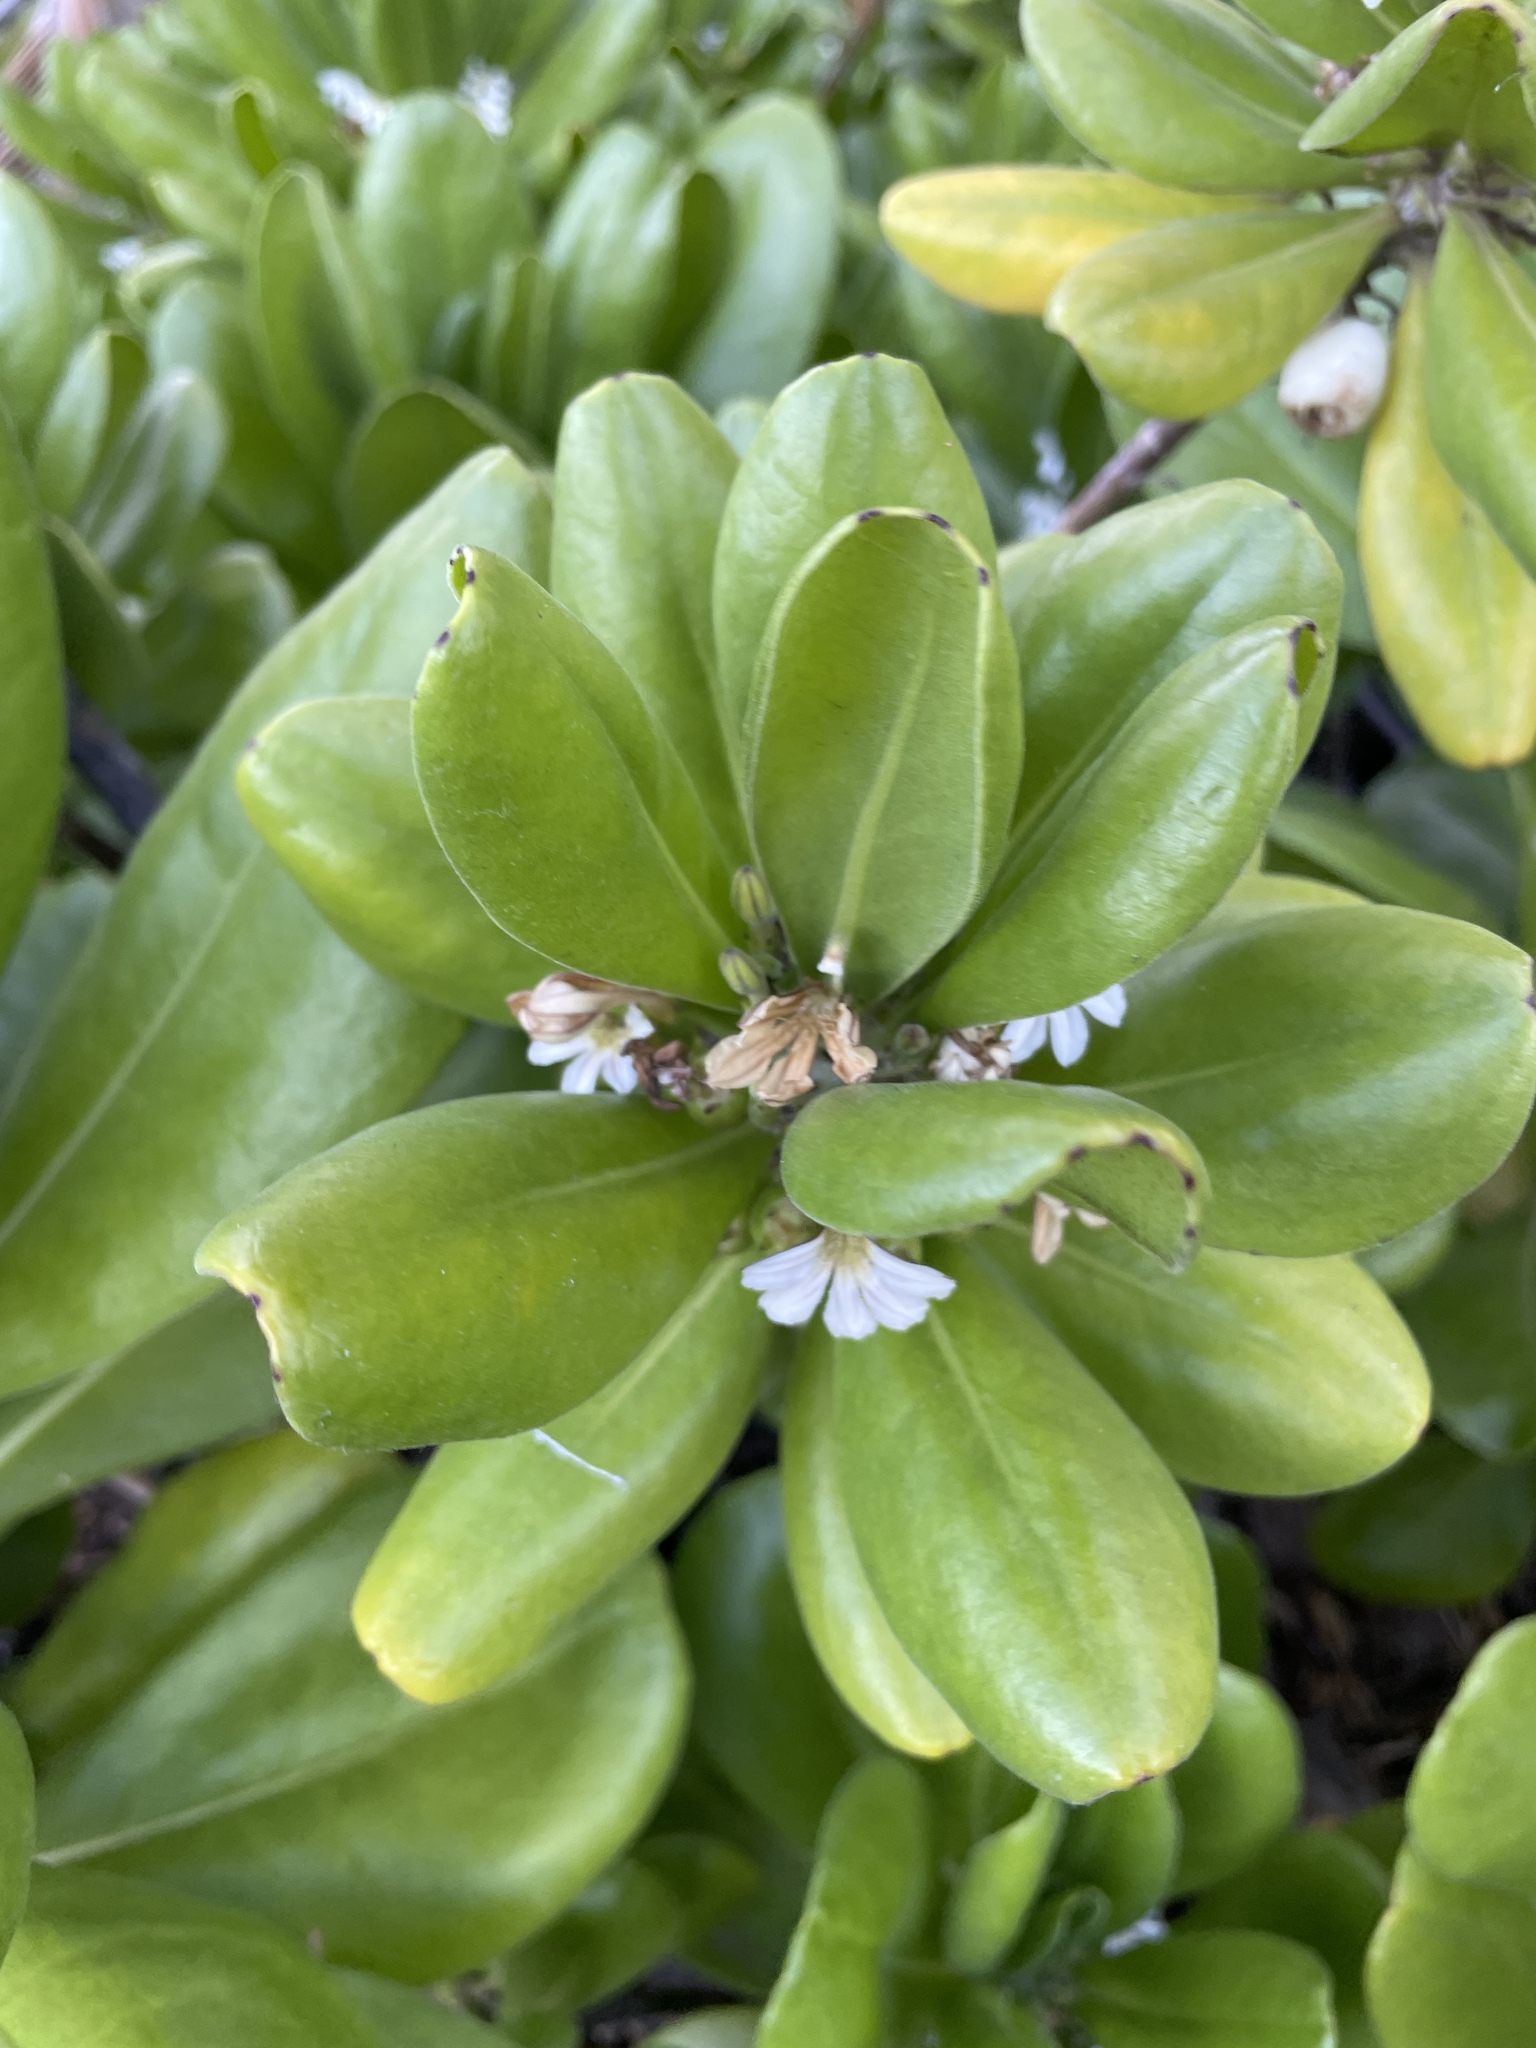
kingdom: Plantae
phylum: Tracheophyta
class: Magnoliopsida
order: Asterales
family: Goodeniaceae
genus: Scaevola
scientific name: Scaevola taccada
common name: Sea lettucetree
